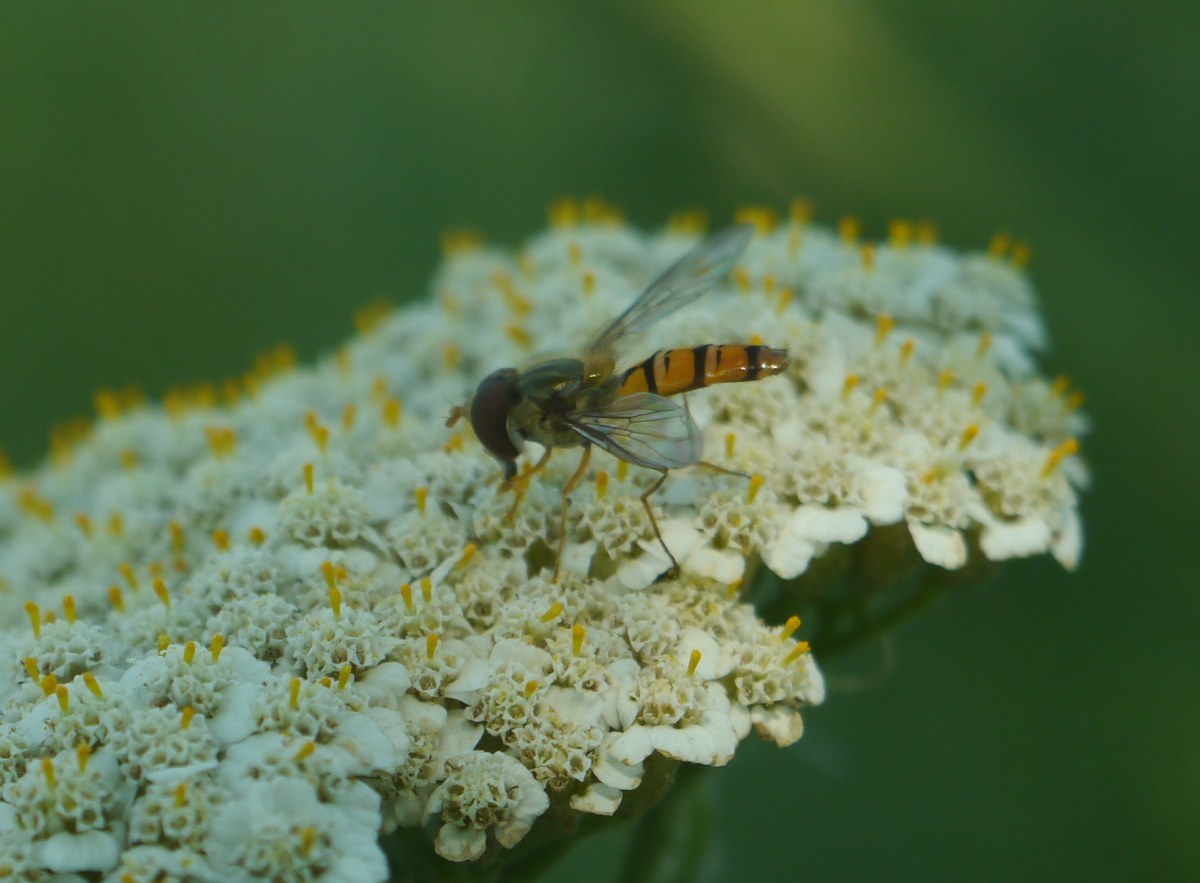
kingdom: Animalia
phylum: Arthropoda
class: Insecta
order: Diptera
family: Syrphidae
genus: Episyrphus
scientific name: Episyrphus balteatus
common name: Marmalade hoverfly
